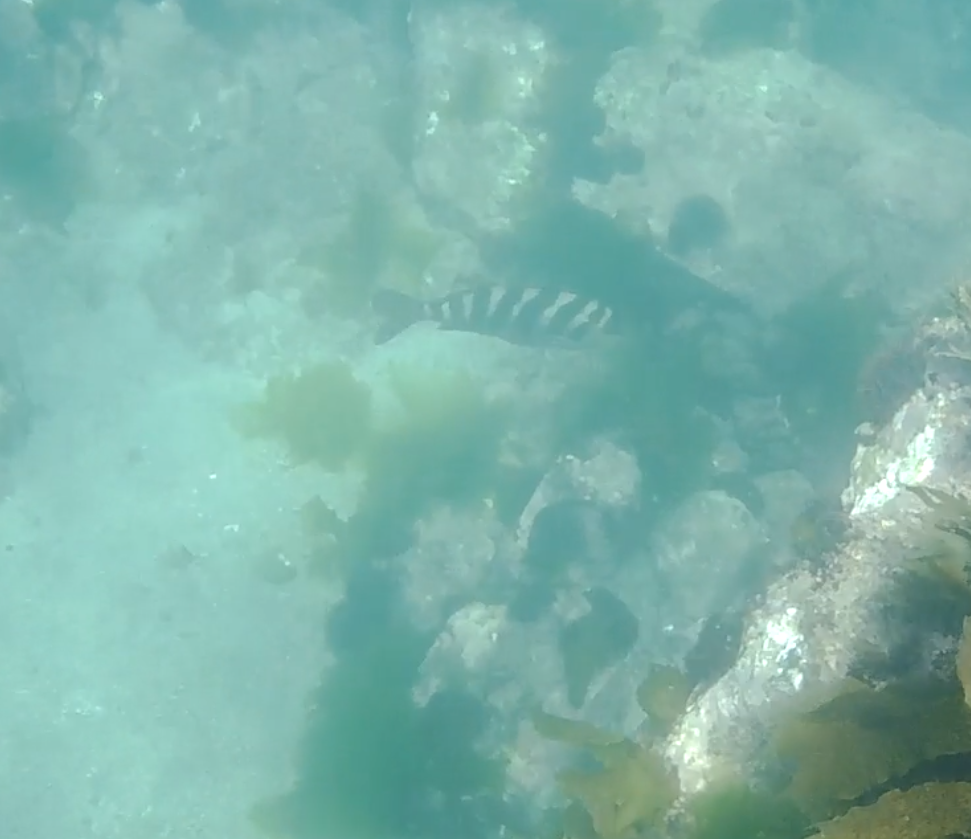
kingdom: Animalia
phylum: Chordata
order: Perciformes
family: Cheilodactylidae
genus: Cheilodactylus
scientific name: Cheilodactylus spectabilis
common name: Red moki
